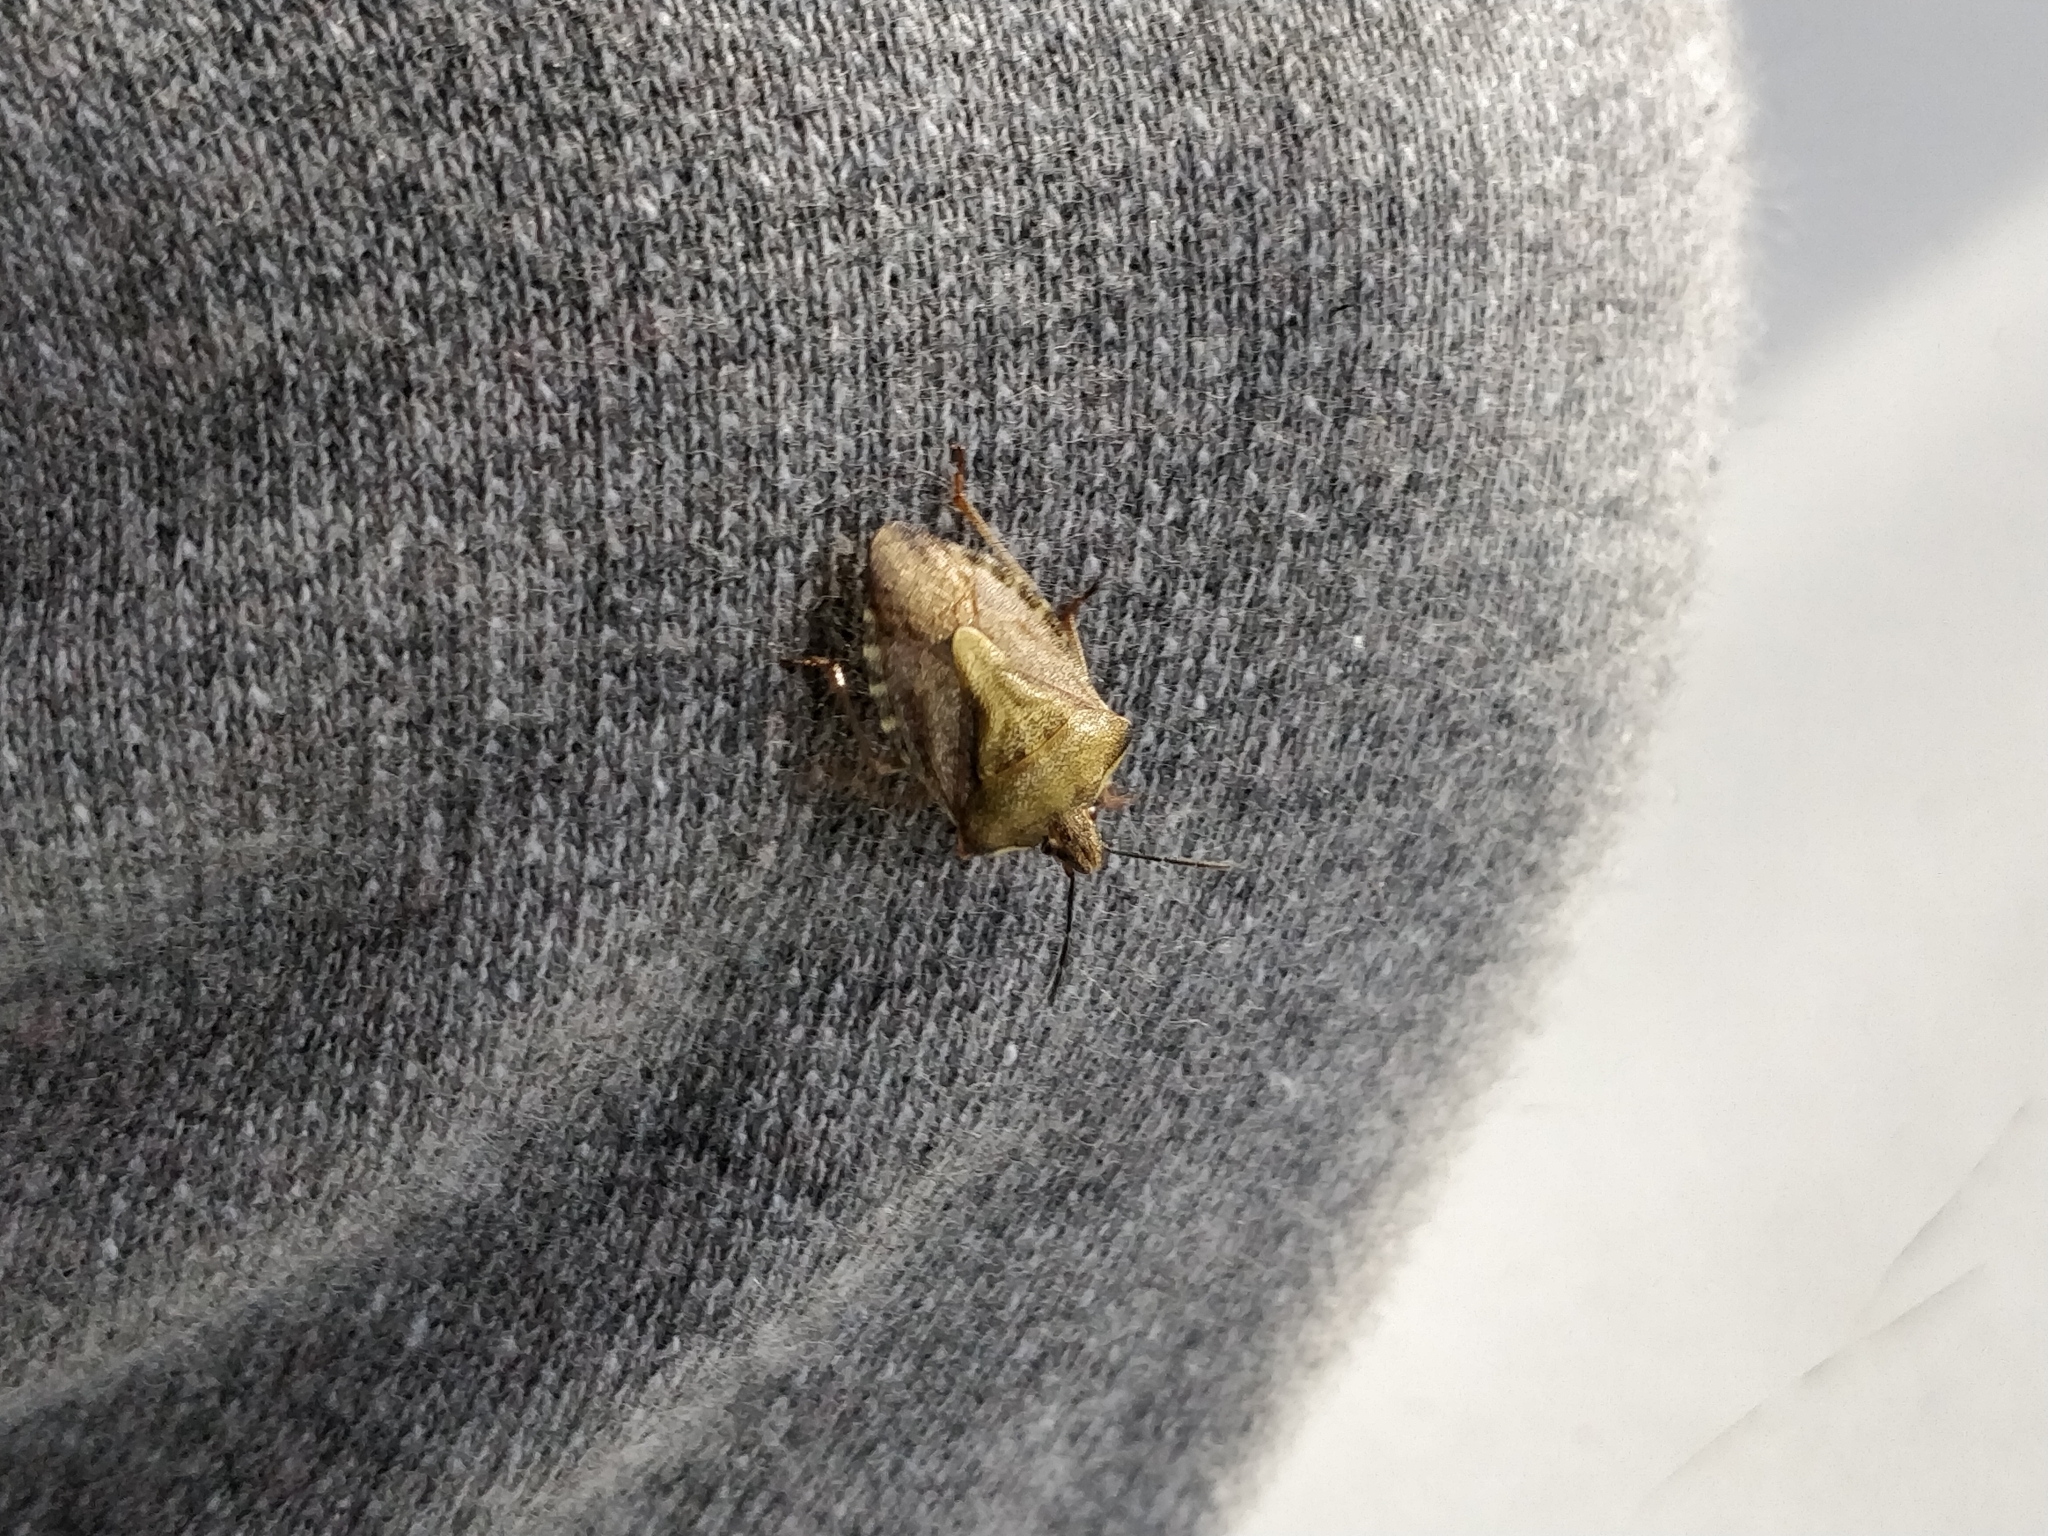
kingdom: Animalia
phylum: Arthropoda
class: Insecta
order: Hemiptera
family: Pentatomidae
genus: Carpocoris
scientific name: Carpocoris purpureipennis
